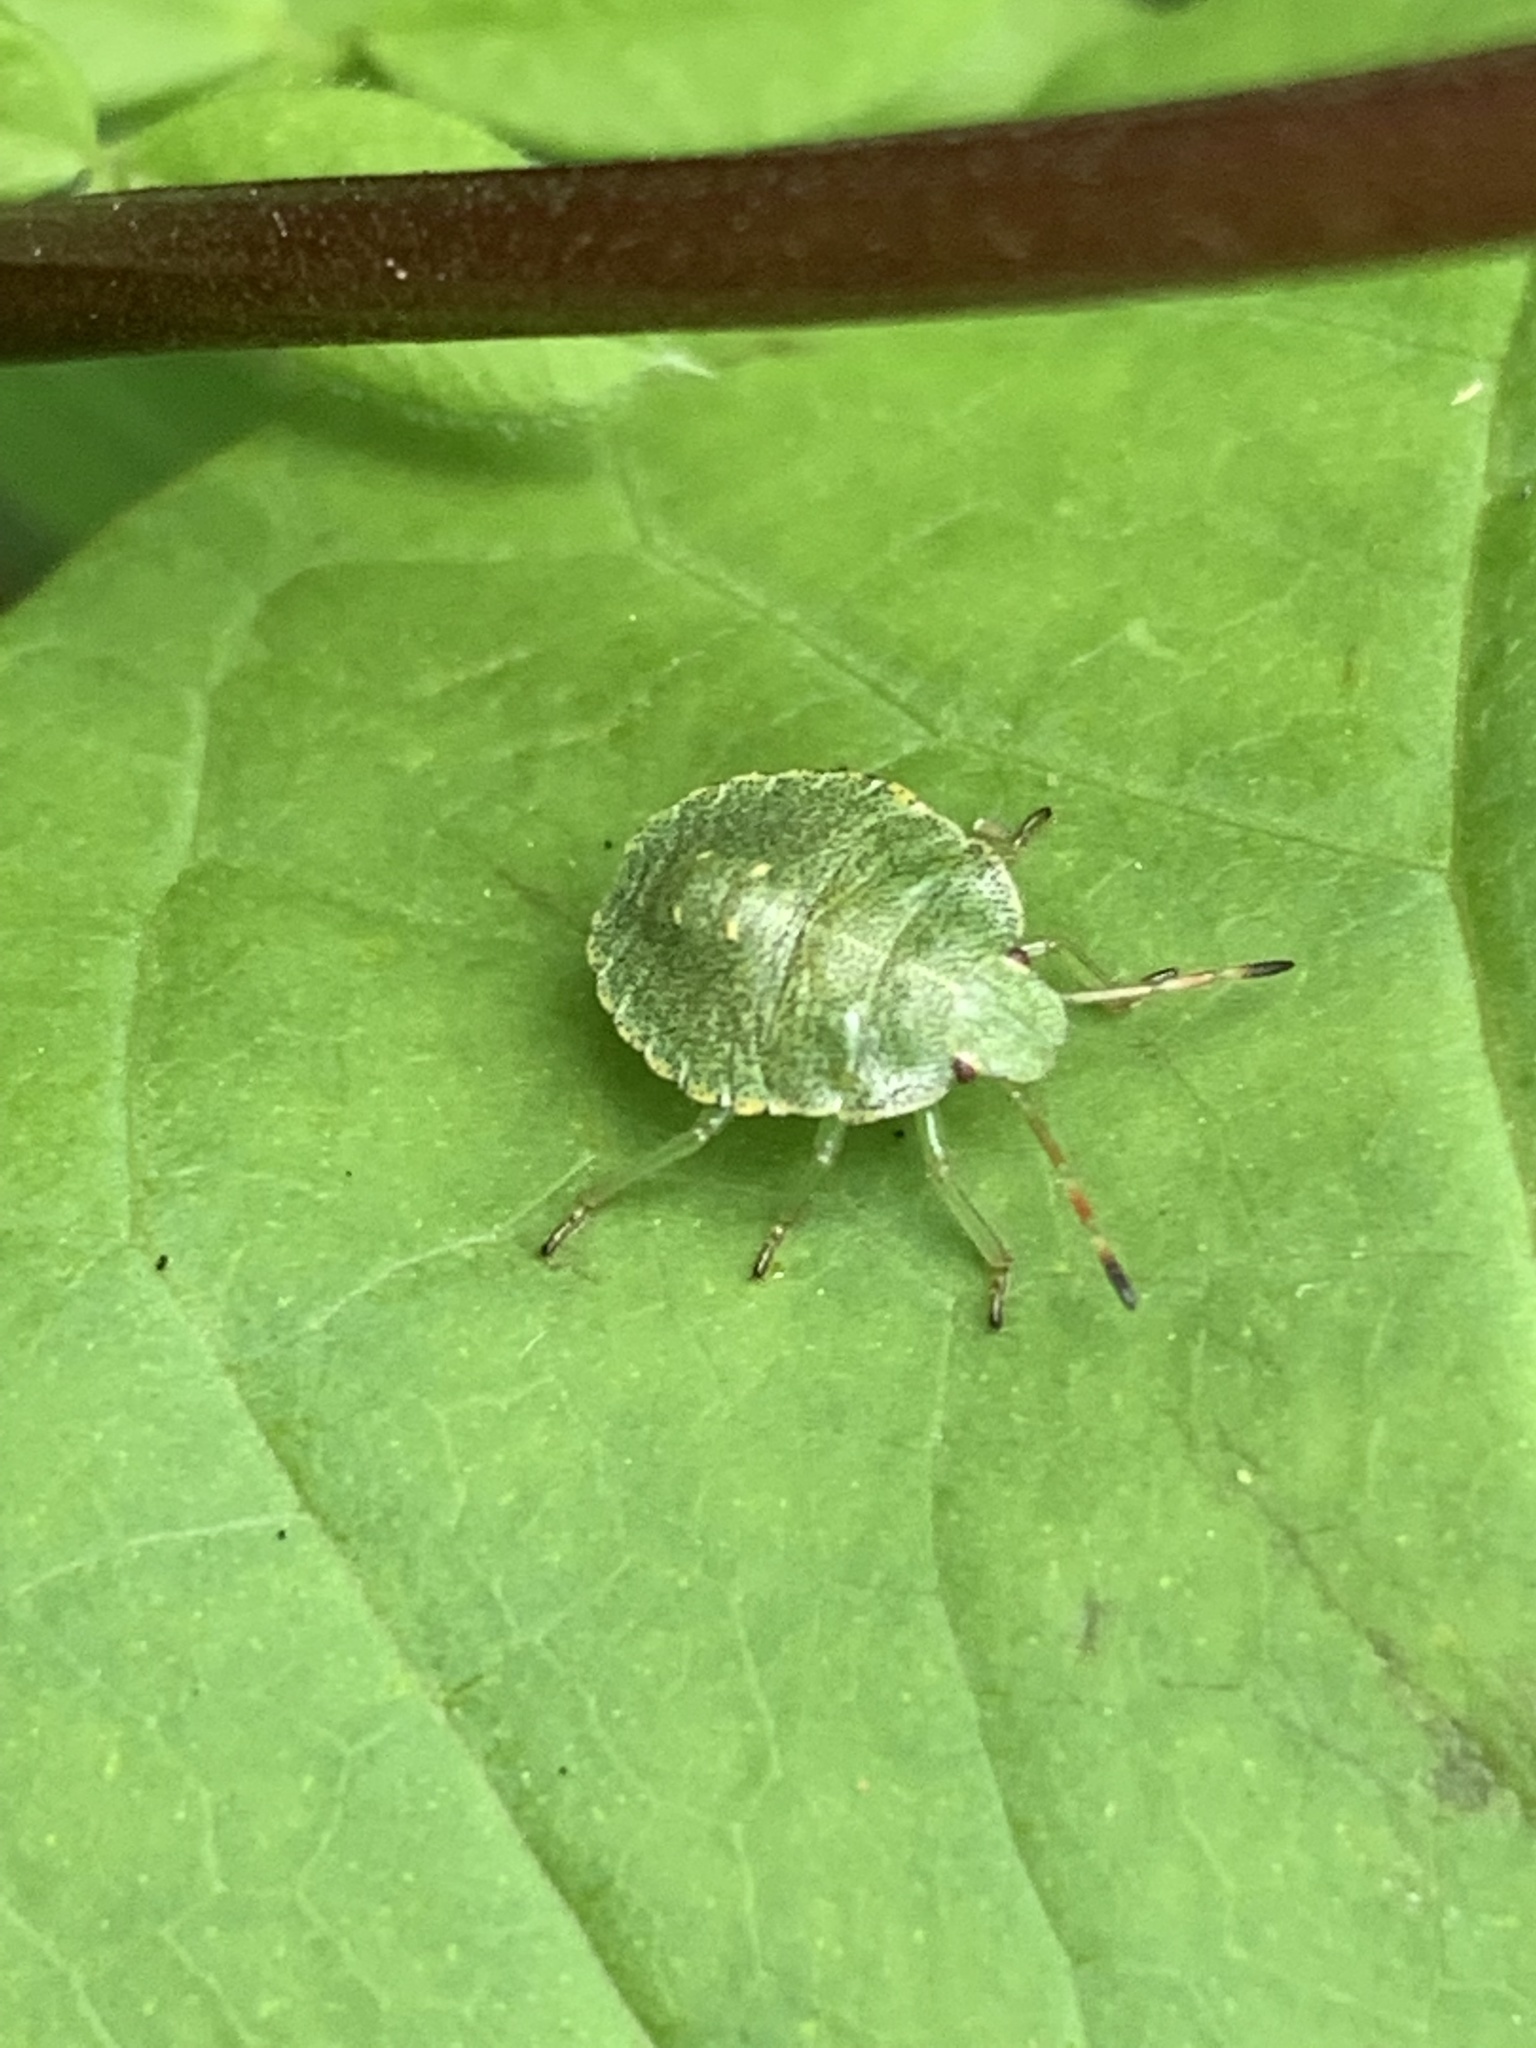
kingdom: Animalia
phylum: Arthropoda
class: Insecta
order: Hemiptera
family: Pentatomidae
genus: Palomena
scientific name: Palomena prasina
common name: Green shieldbug
